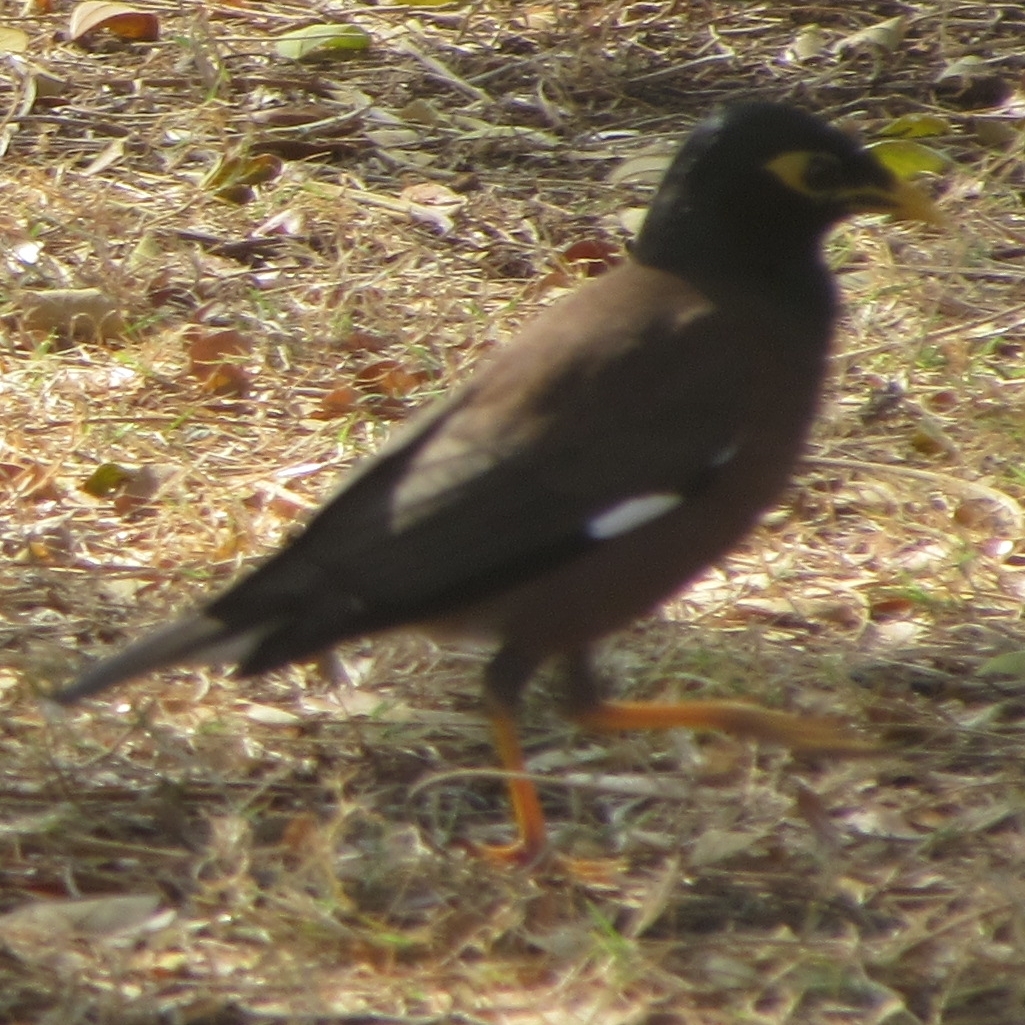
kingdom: Animalia
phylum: Chordata
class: Aves
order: Passeriformes
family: Sturnidae
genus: Acridotheres
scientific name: Acridotheres tristis
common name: Common myna
